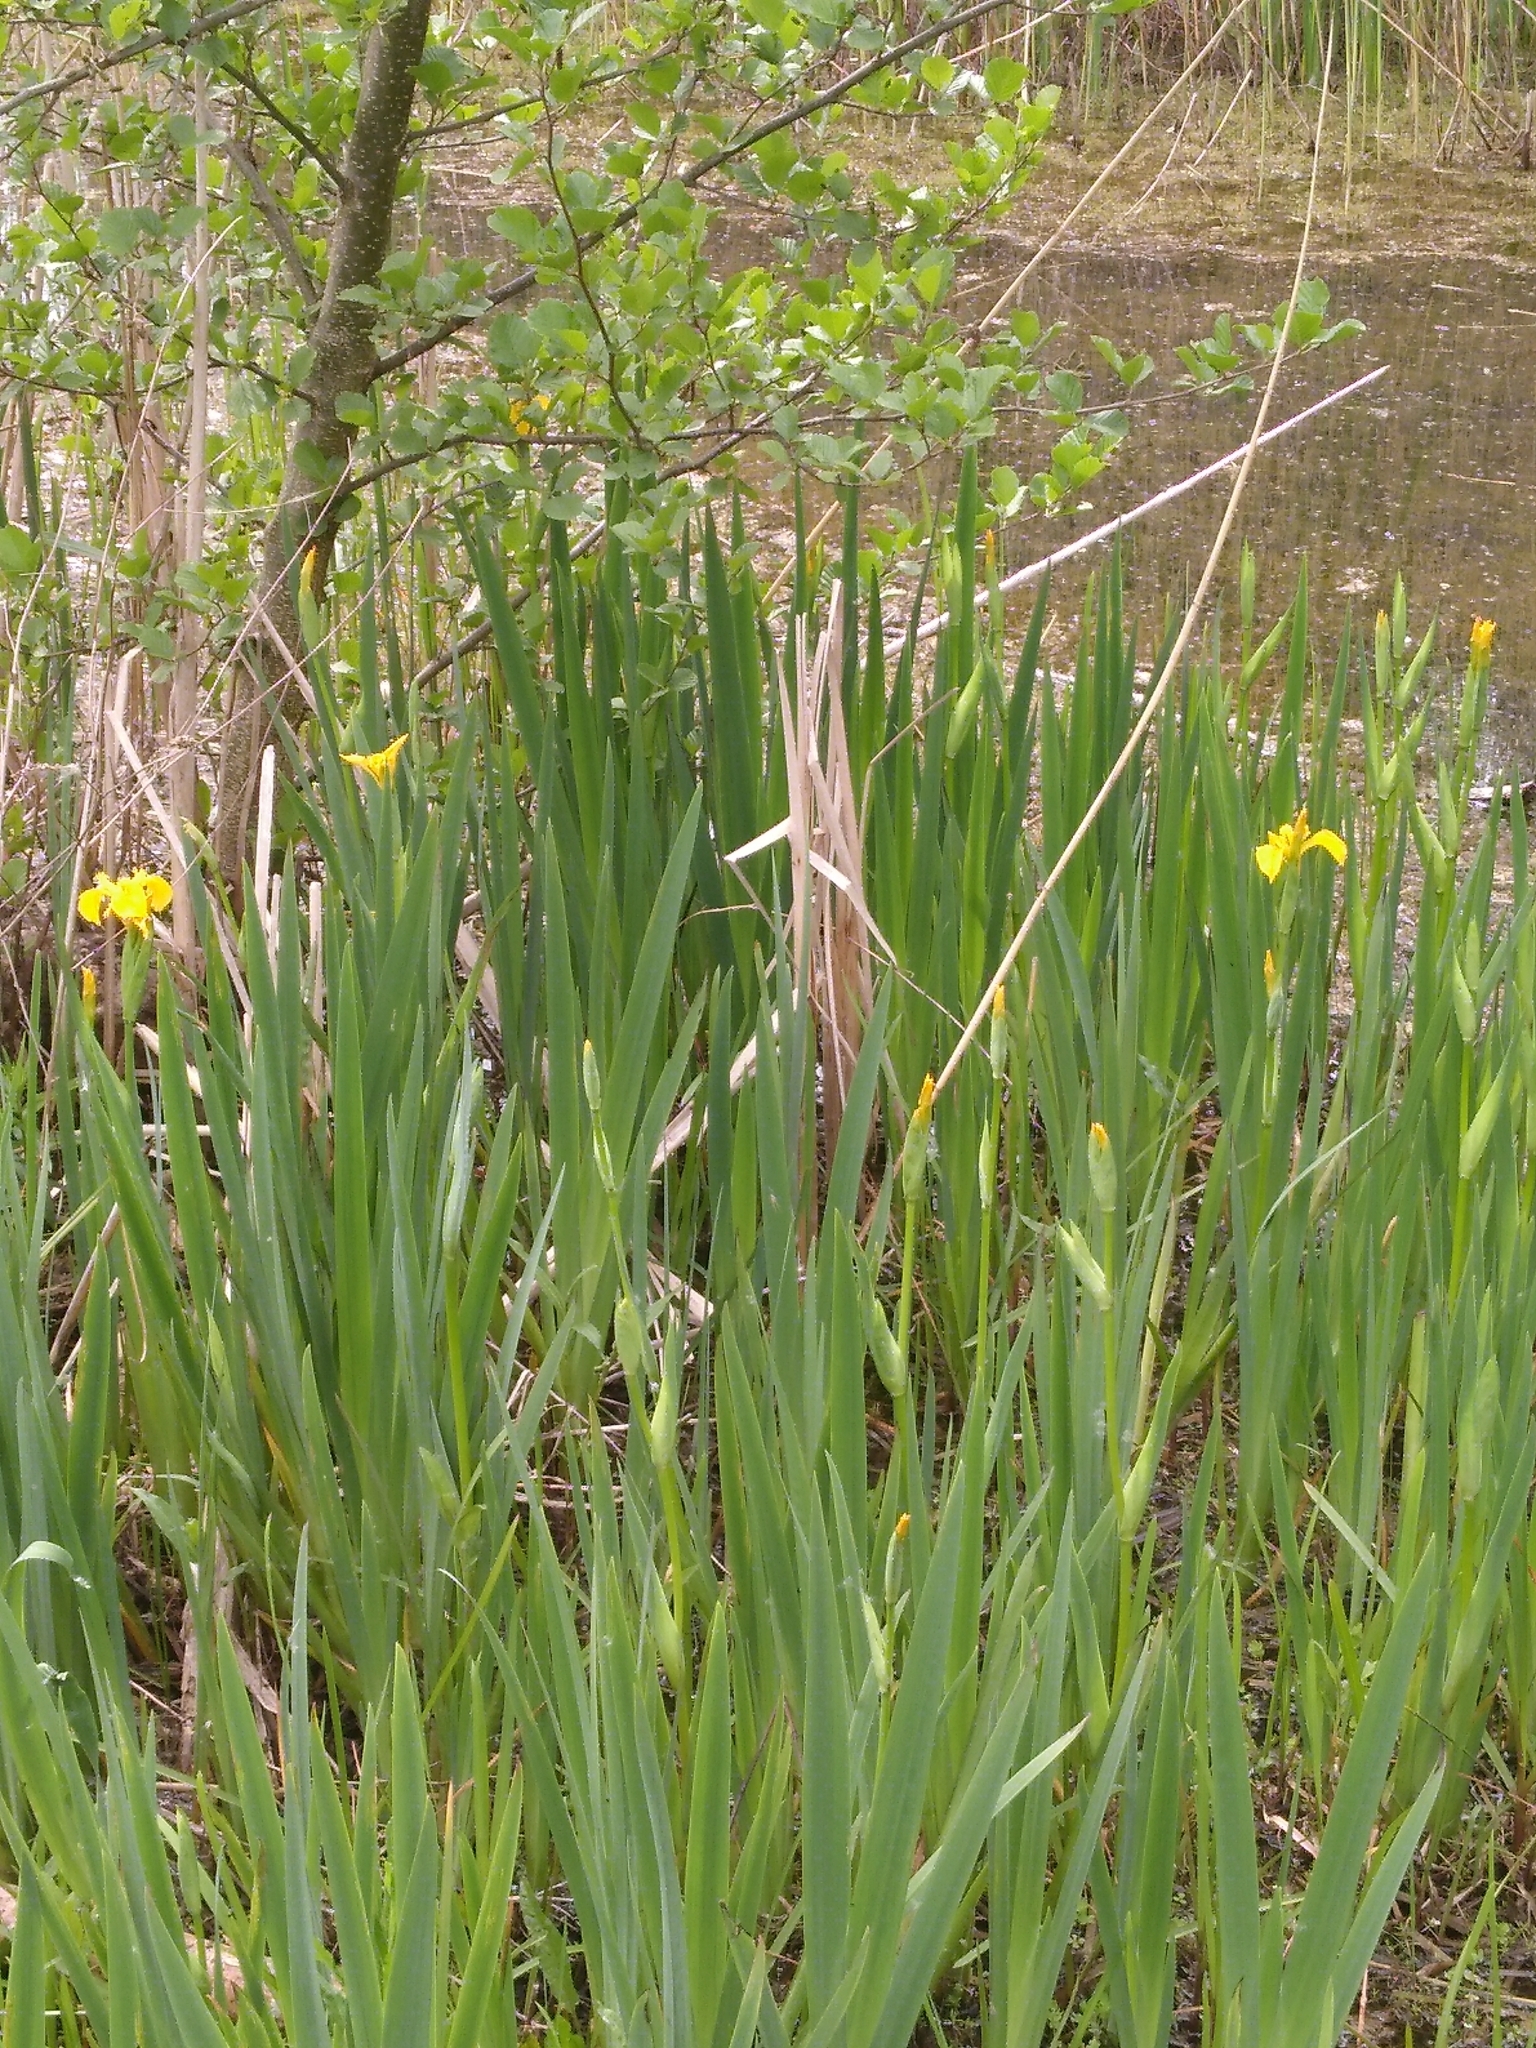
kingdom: Plantae
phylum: Tracheophyta
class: Liliopsida
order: Asparagales
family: Iridaceae
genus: Iris
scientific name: Iris pseudacorus
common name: Yellow flag
